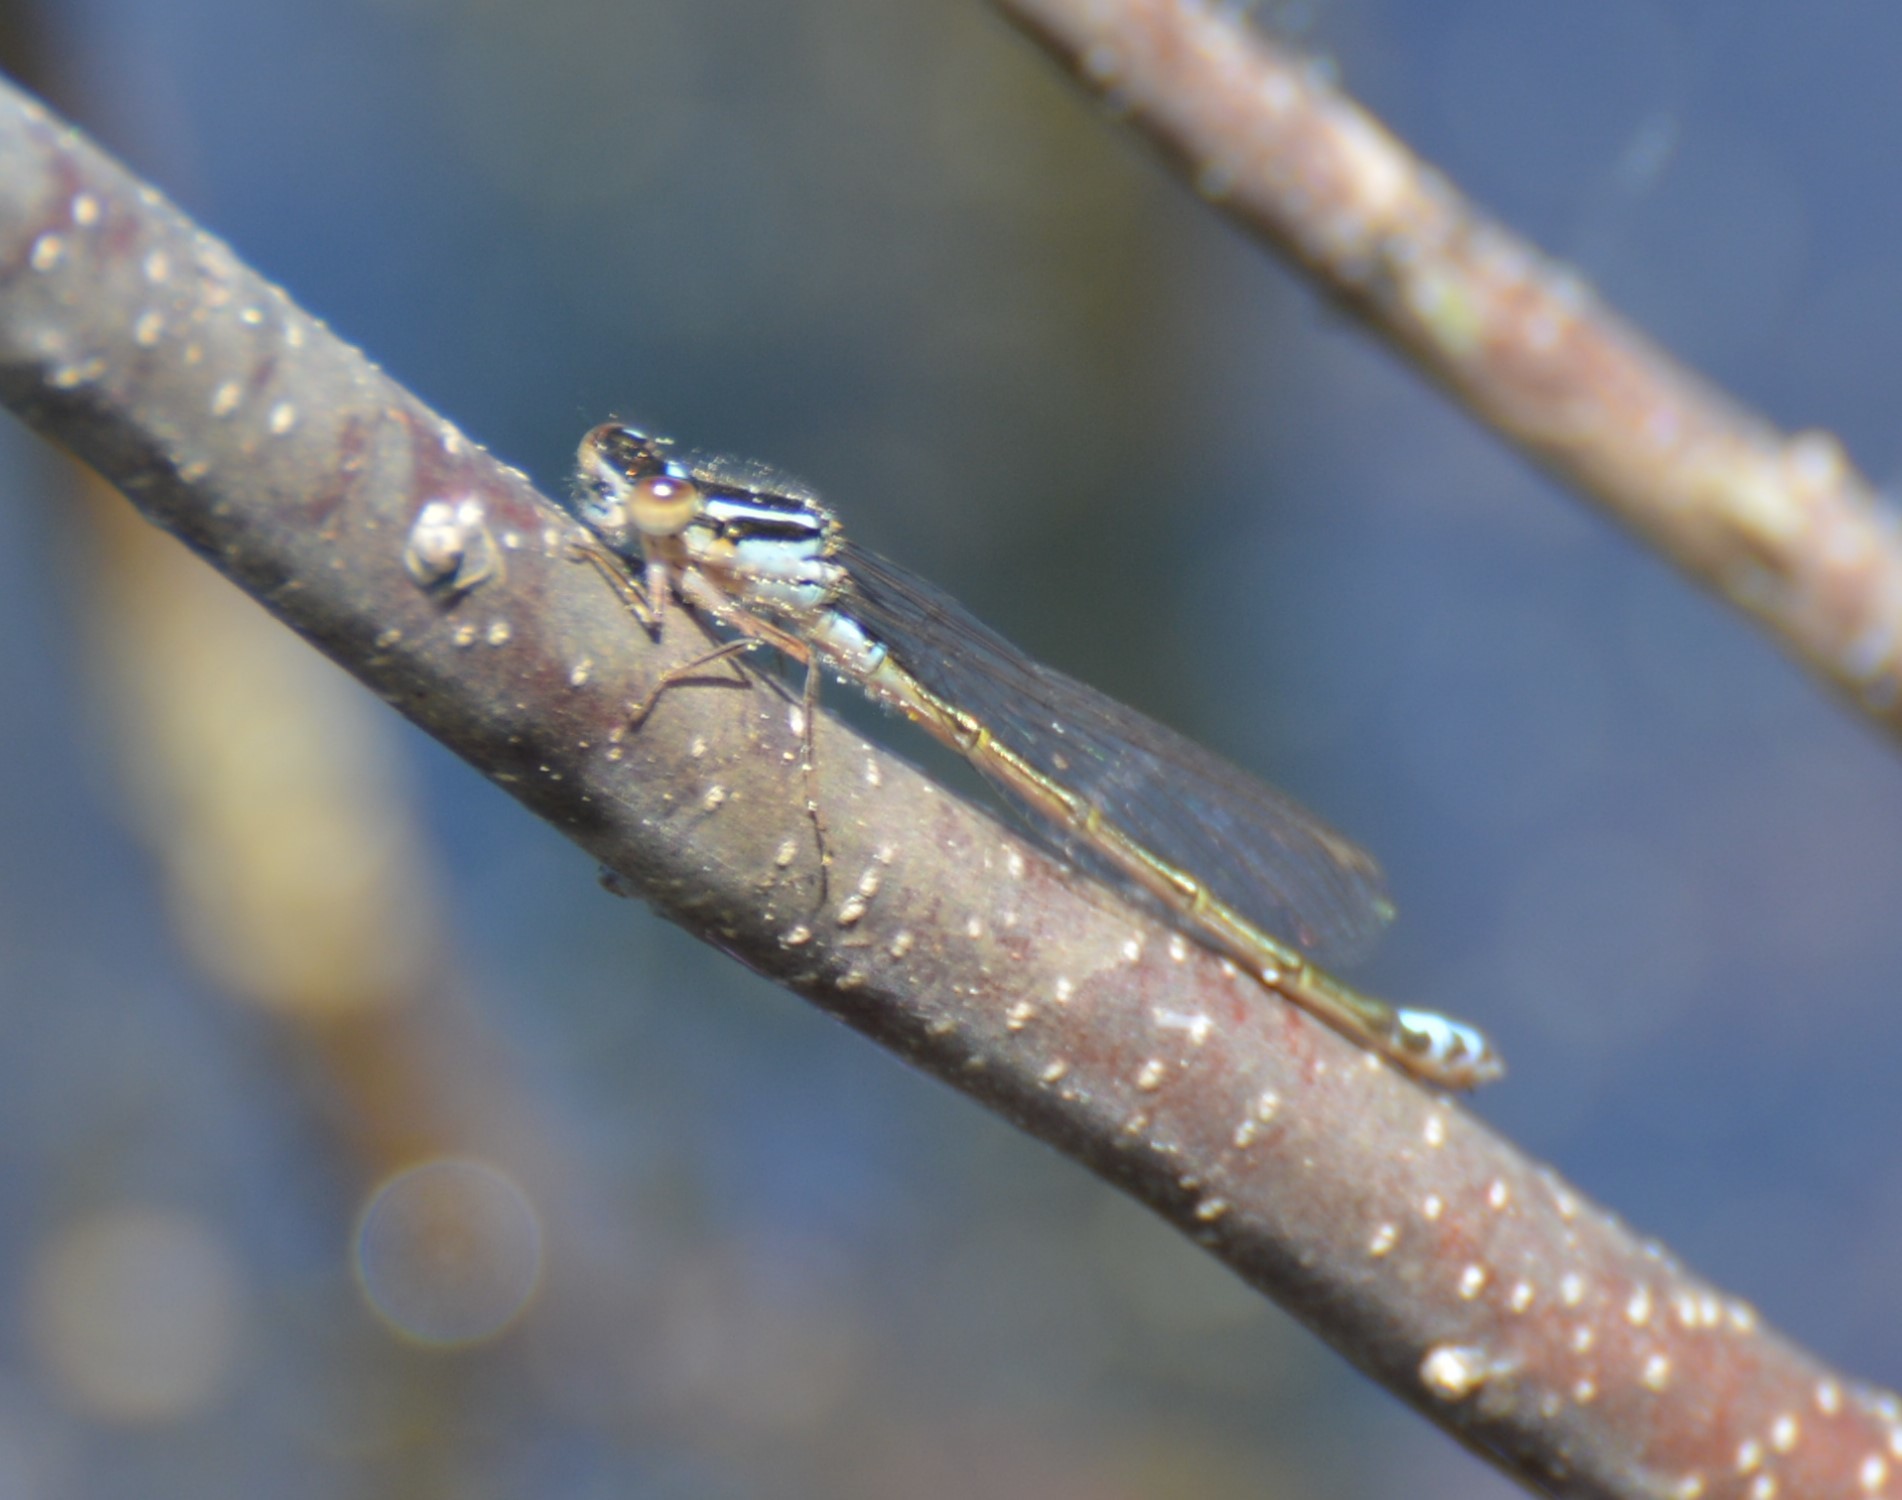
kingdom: Animalia
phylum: Arthropoda
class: Insecta
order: Odonata
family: Coenagrionidae
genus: Ischnura
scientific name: Ischnura verticalis
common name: Eastern forktail
